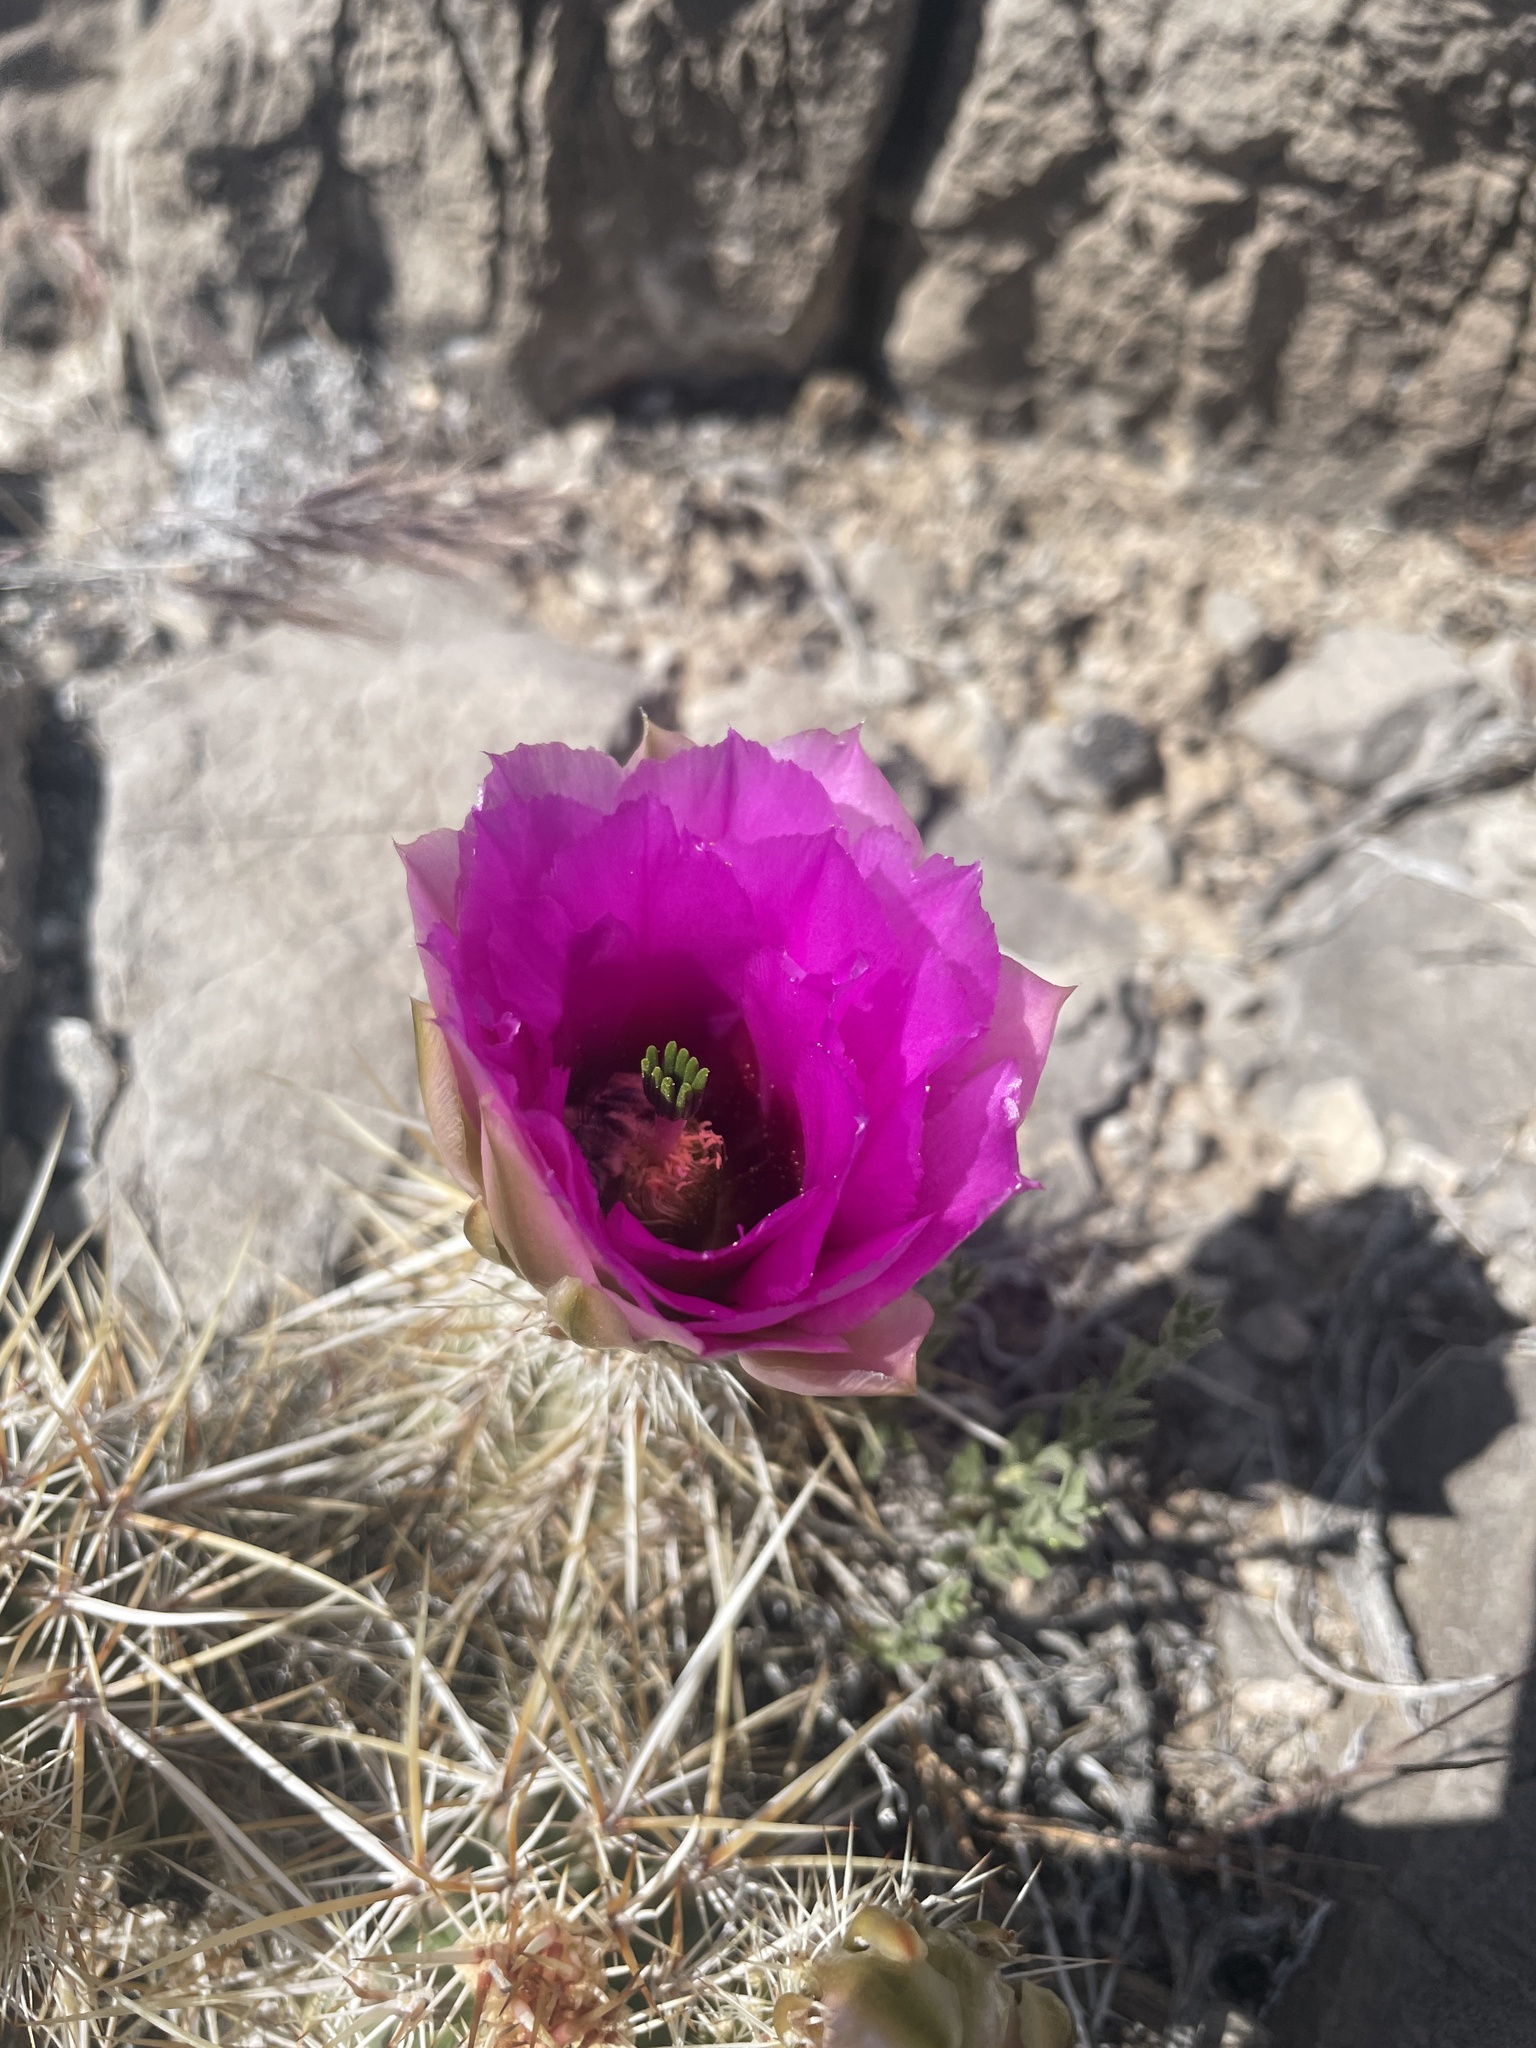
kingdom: Plantae
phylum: Tracheophyta
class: Magnoliopsida
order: Caryophyllales
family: Cactaceae
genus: Echinocereus
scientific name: Echinocereus engelmannii
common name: Engelmann's hedgehog cactus
